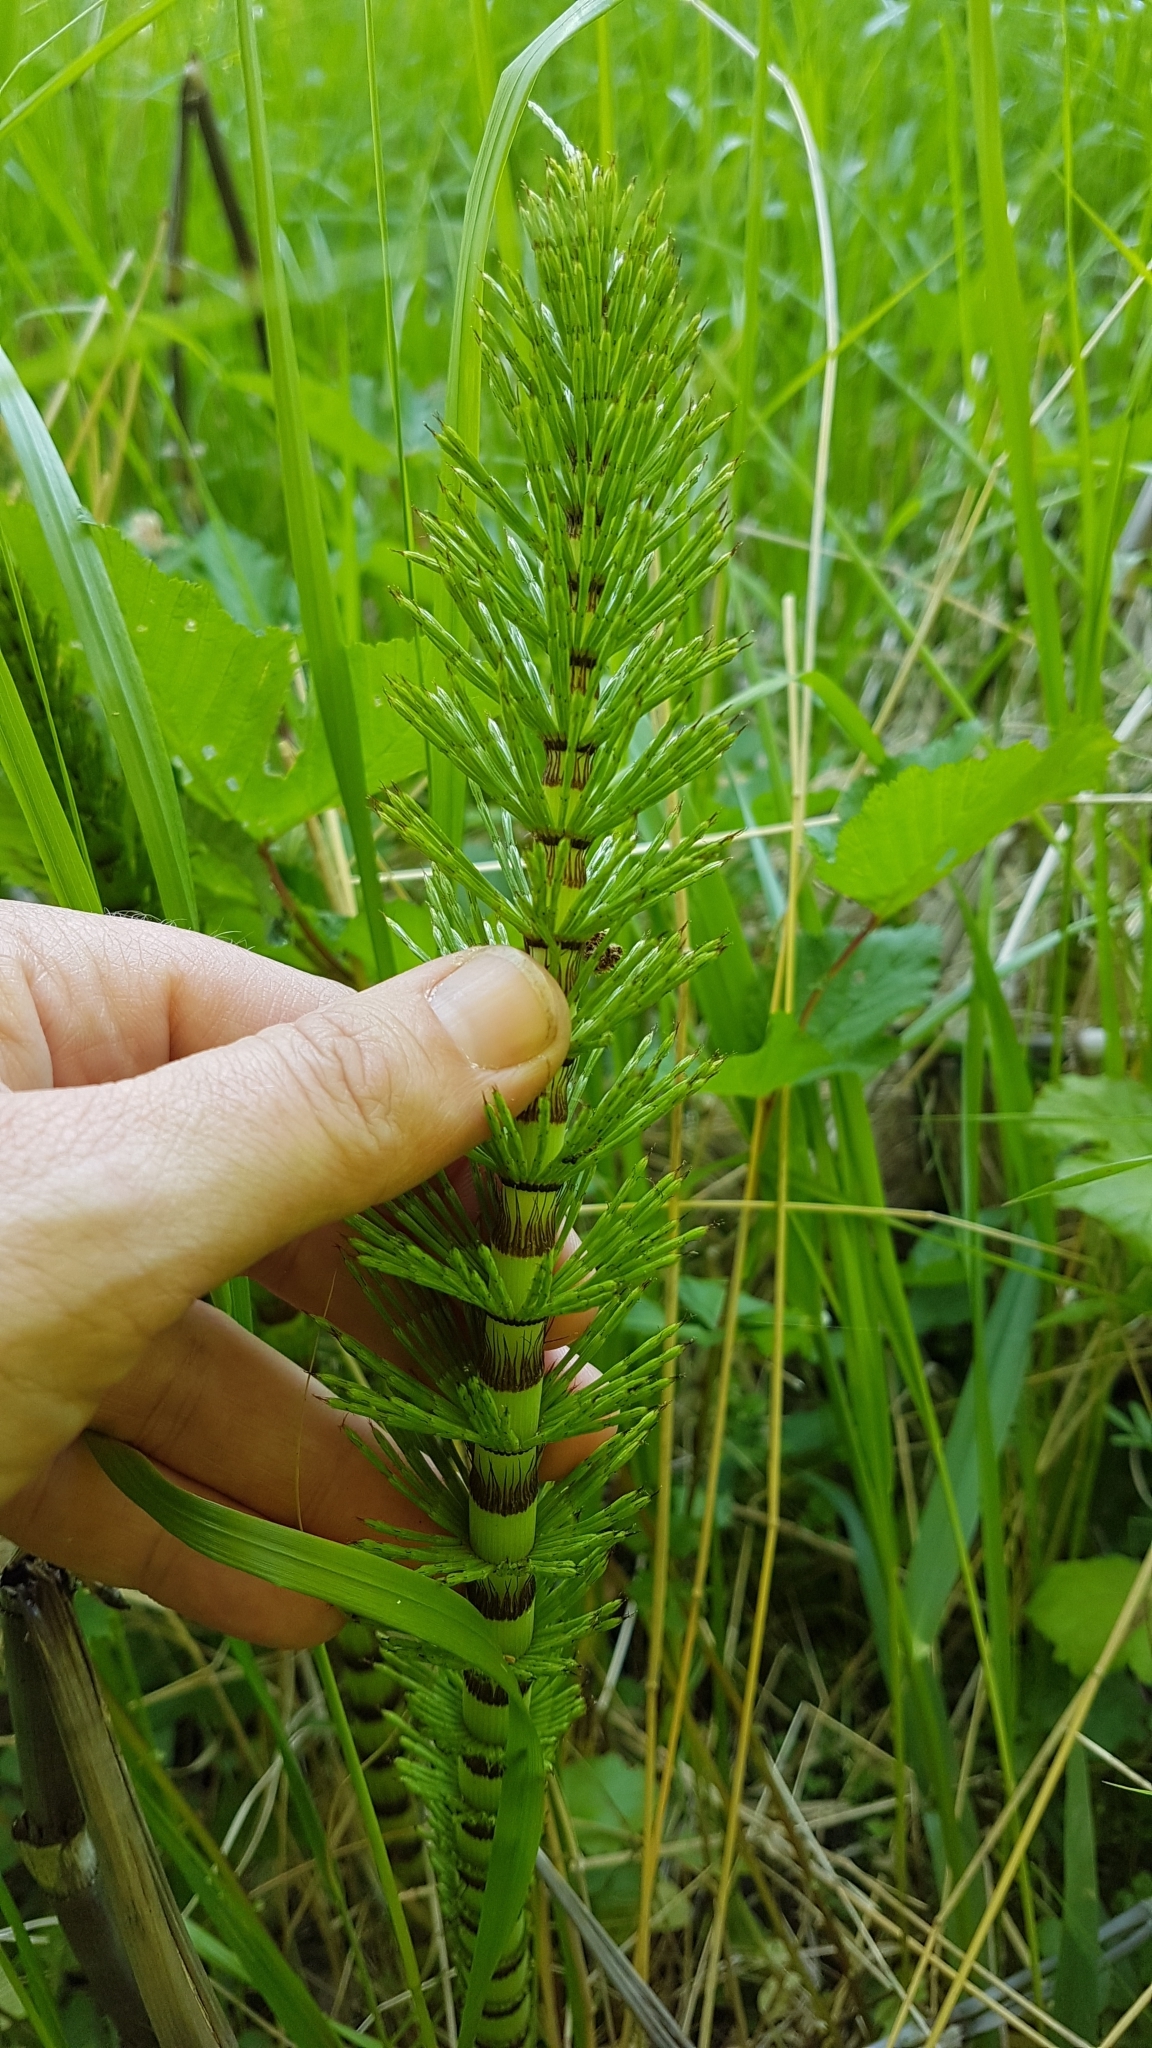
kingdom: Plantae
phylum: Tracheophyta
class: Polypodiopsida
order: Equisetales
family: Equisetaceae
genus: Equisetum
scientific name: Equisetum telmateia
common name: Great horsetail
